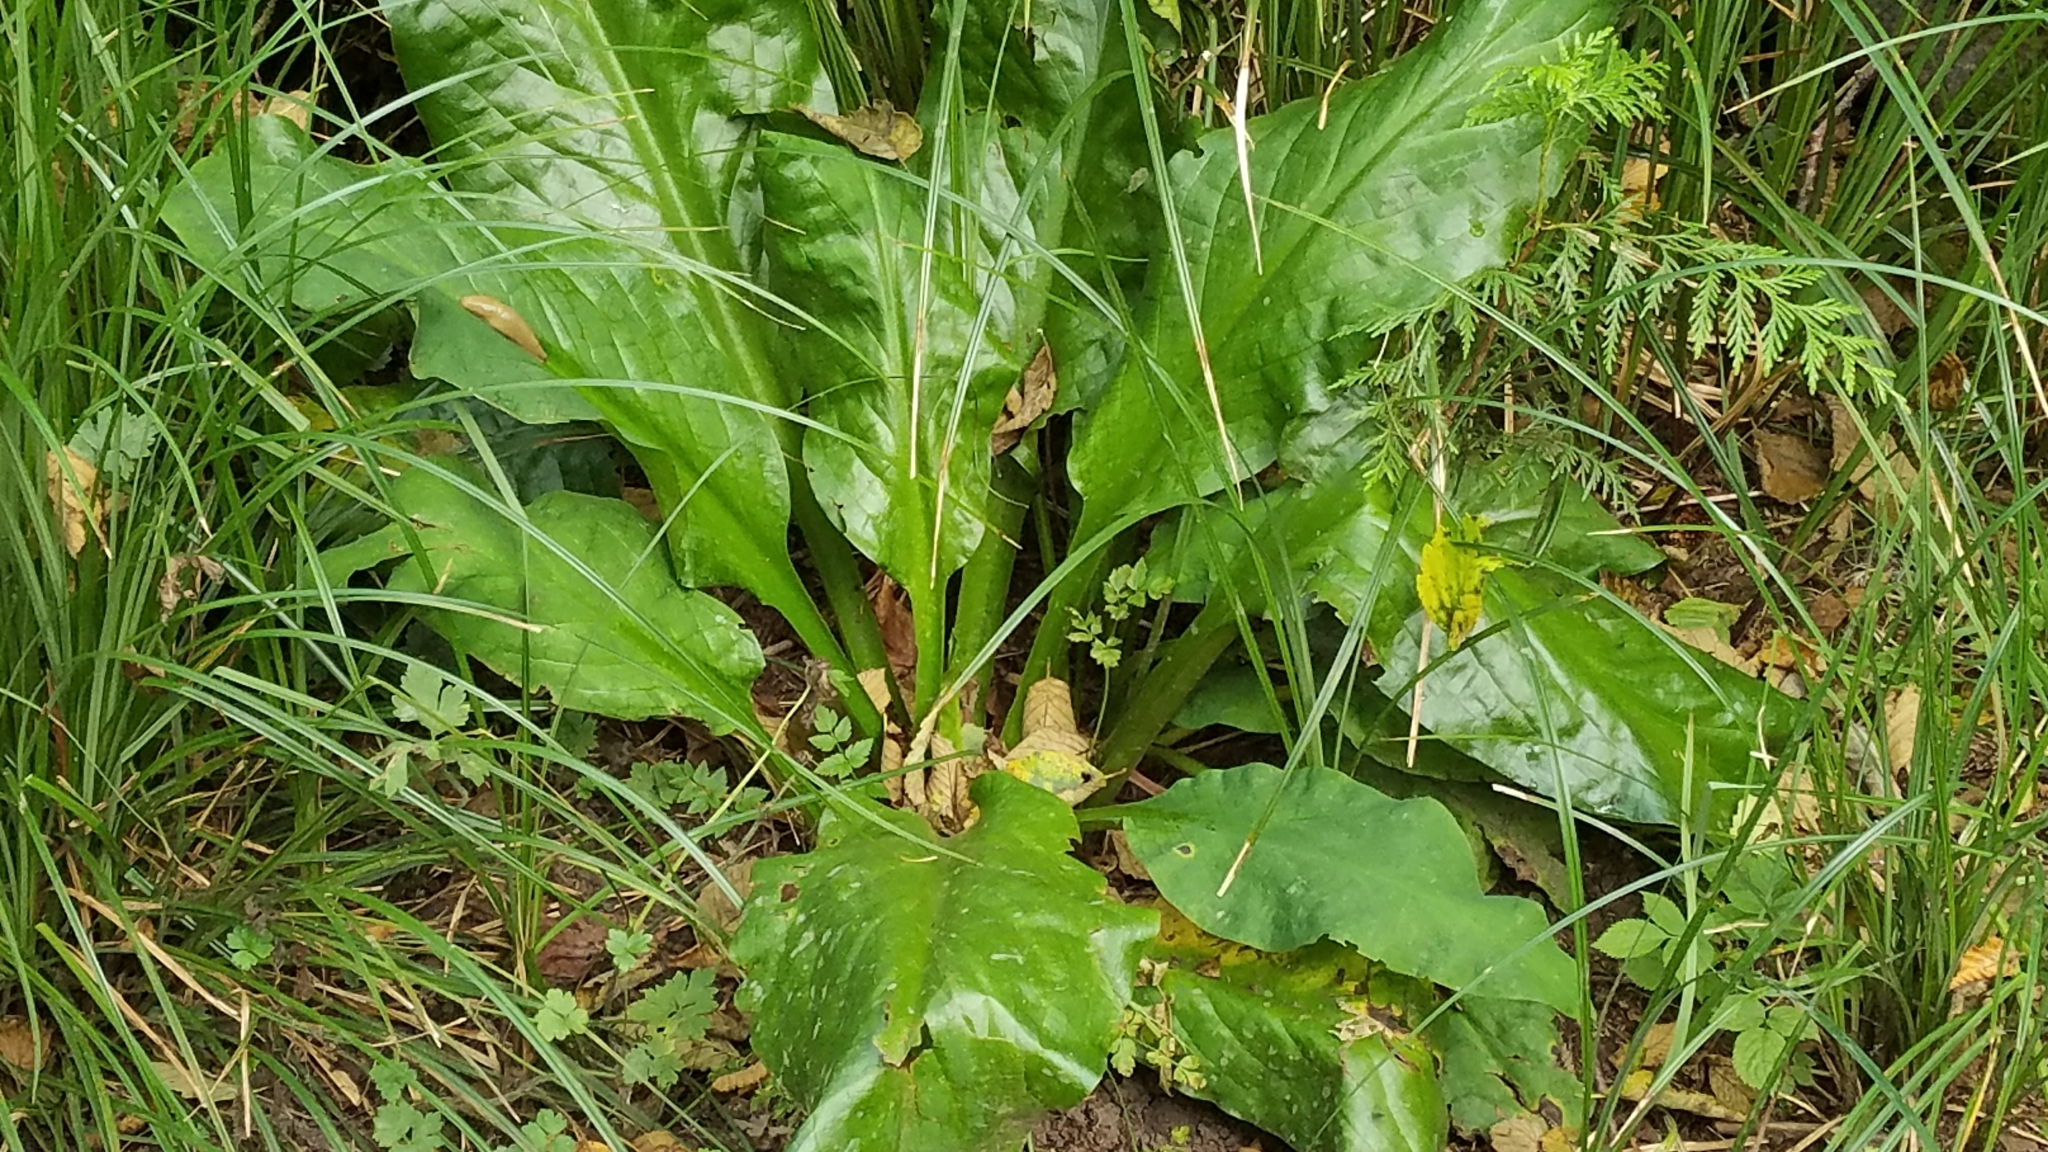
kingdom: Plantae
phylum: Tracheophyta
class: Liliopsida
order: Alismatales
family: Araceae
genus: Lysichiton
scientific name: Lysichiton americanus
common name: American skunk cabbage
